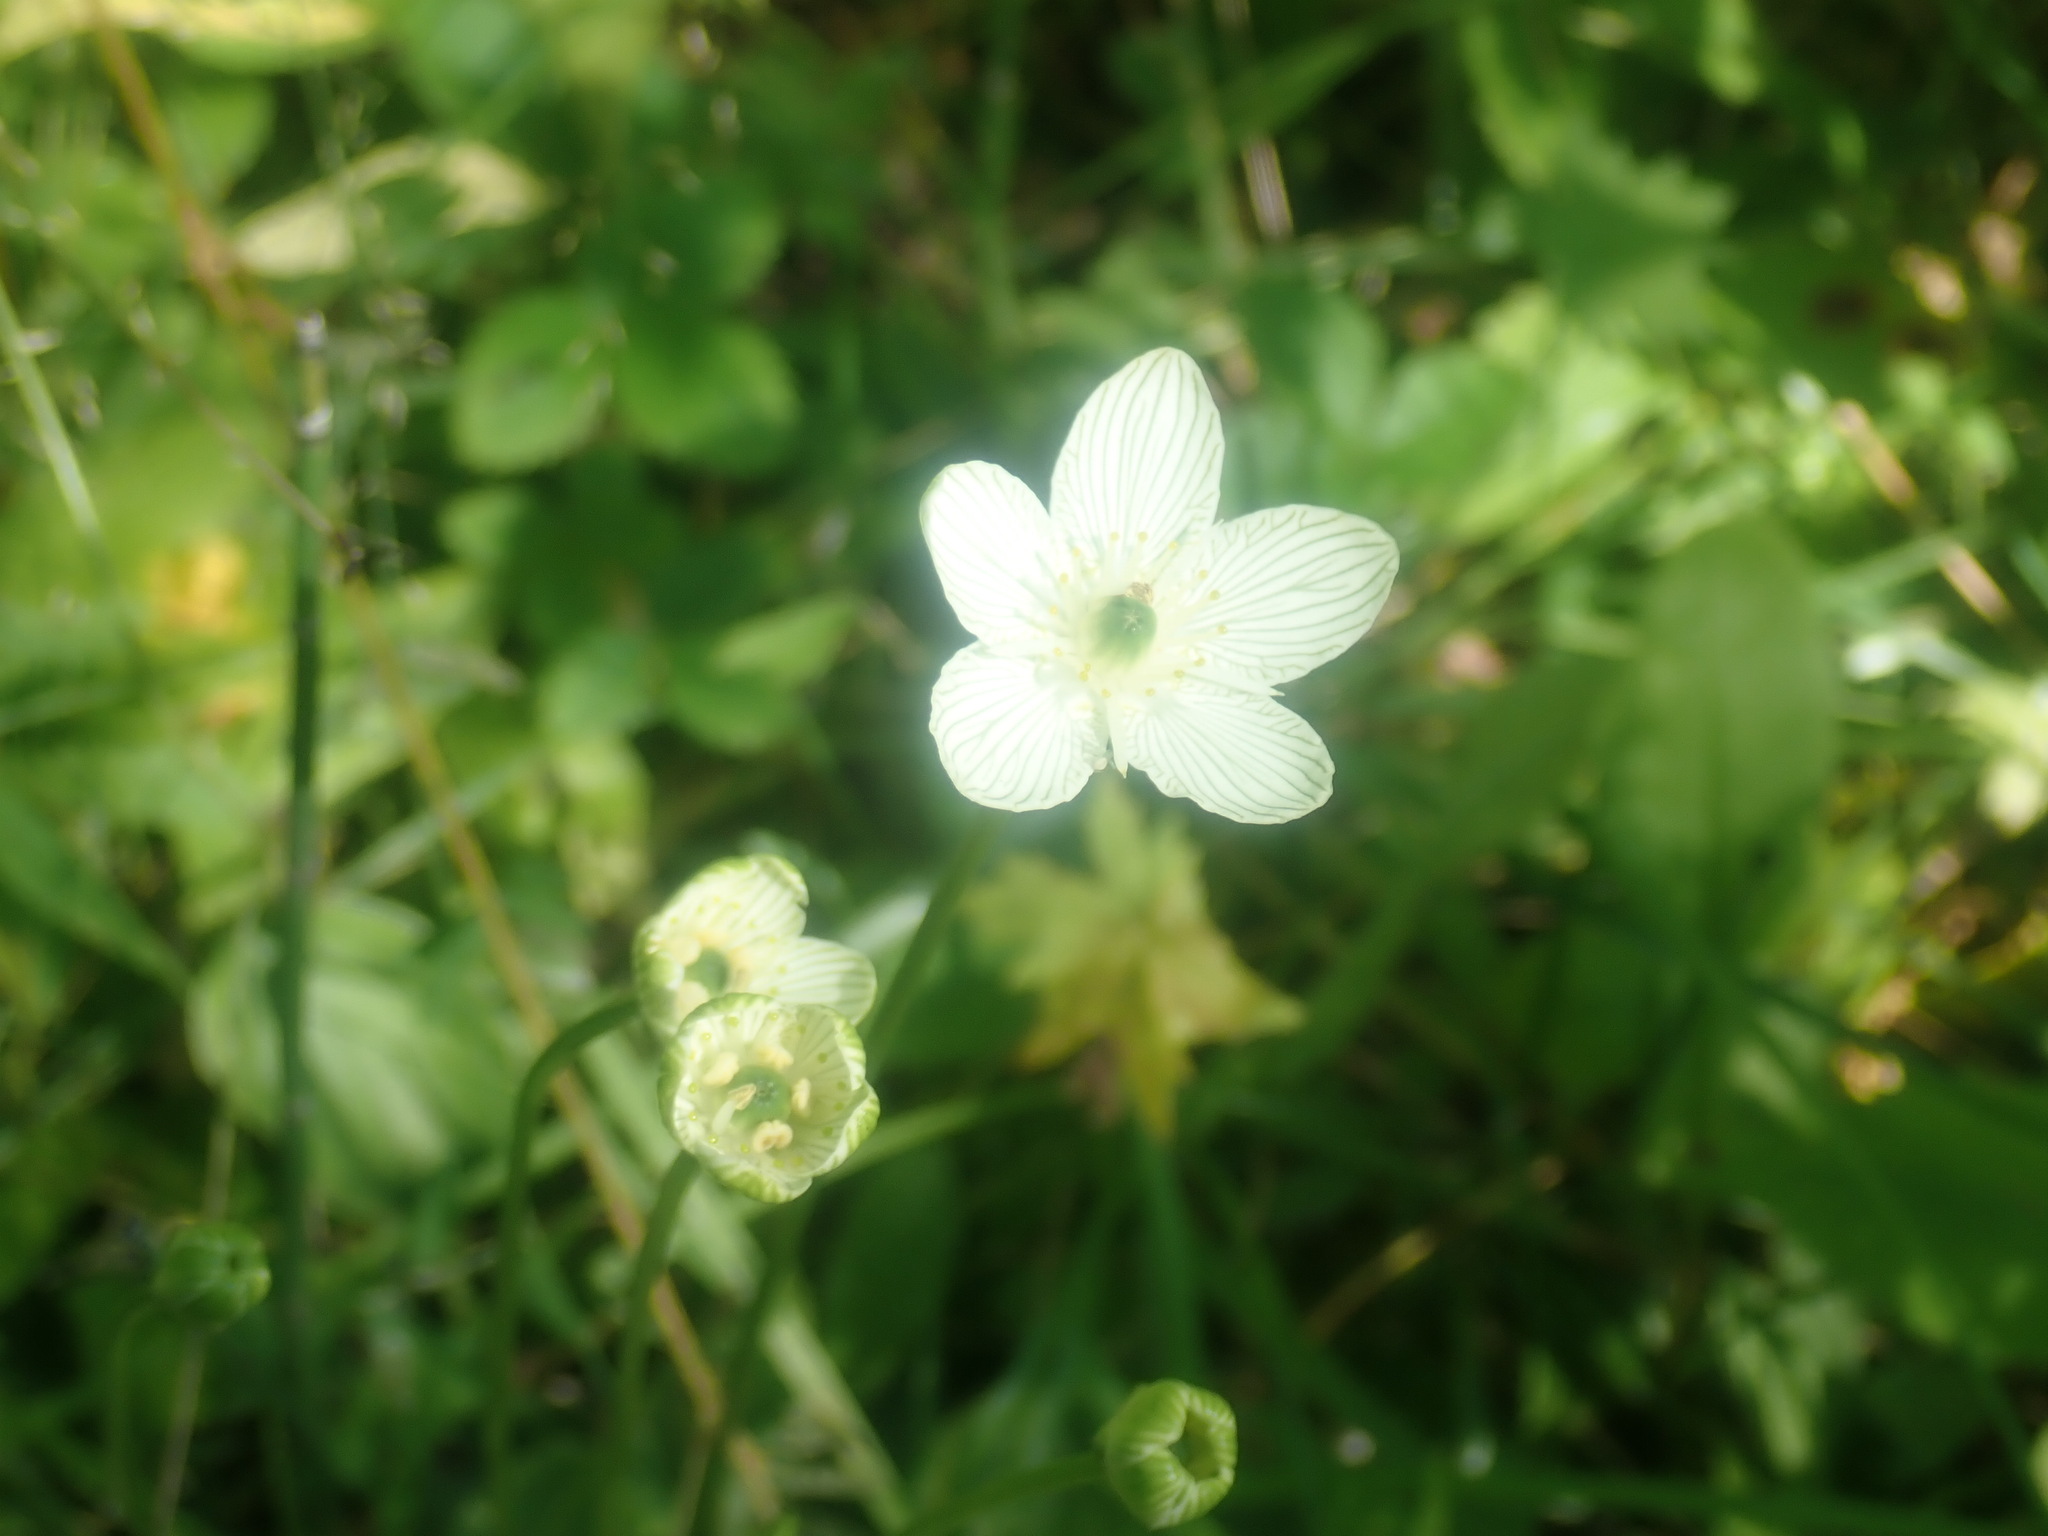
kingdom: Plantae
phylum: Tracheophyta
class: Magnoliopsida
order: Celastrales
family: Parnassiaceae
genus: Parnassia
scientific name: Parnassia glauca
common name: American grass-of-parnassus
